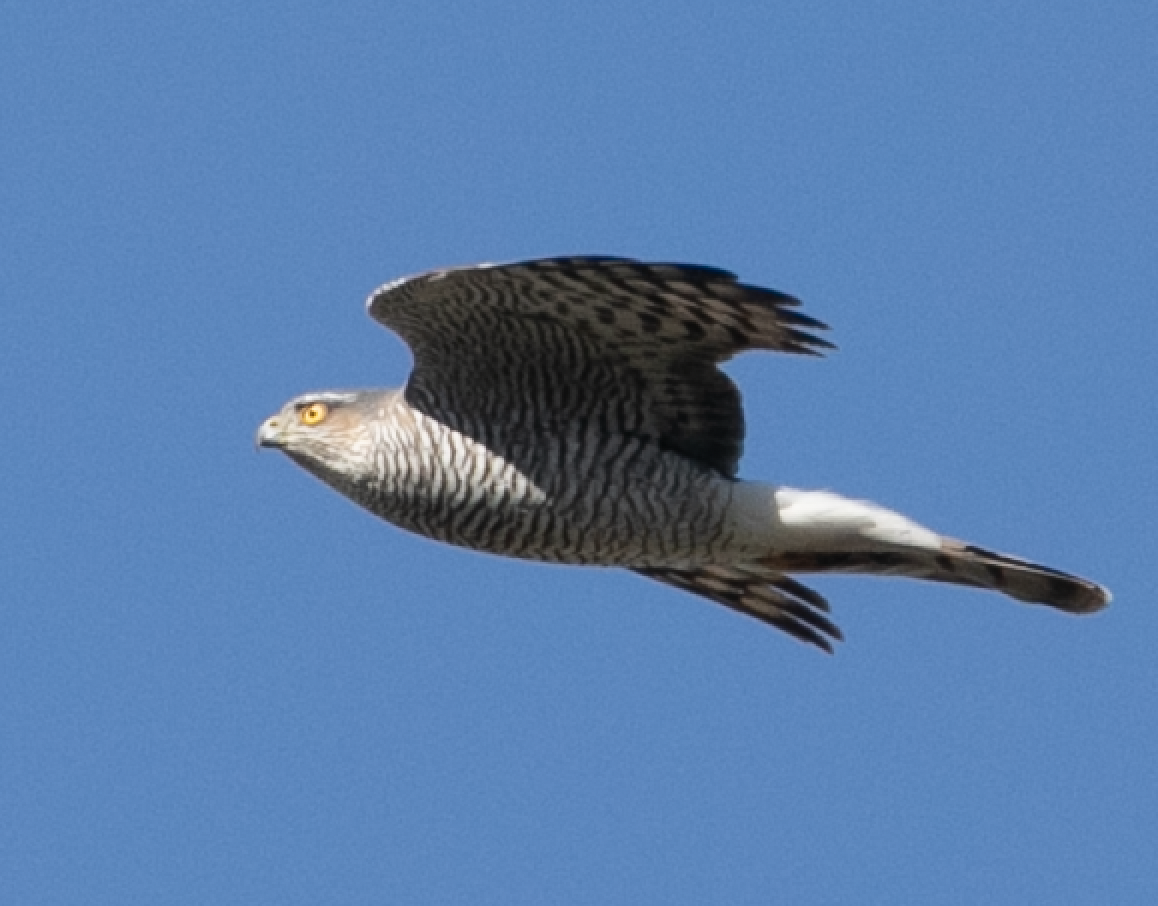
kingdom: Animalia
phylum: Chordata
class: Aves
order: Accipitriformes
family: Accipitridae
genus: Accipiter
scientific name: Accipiter nisus
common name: Eurasian sparrowhawk
